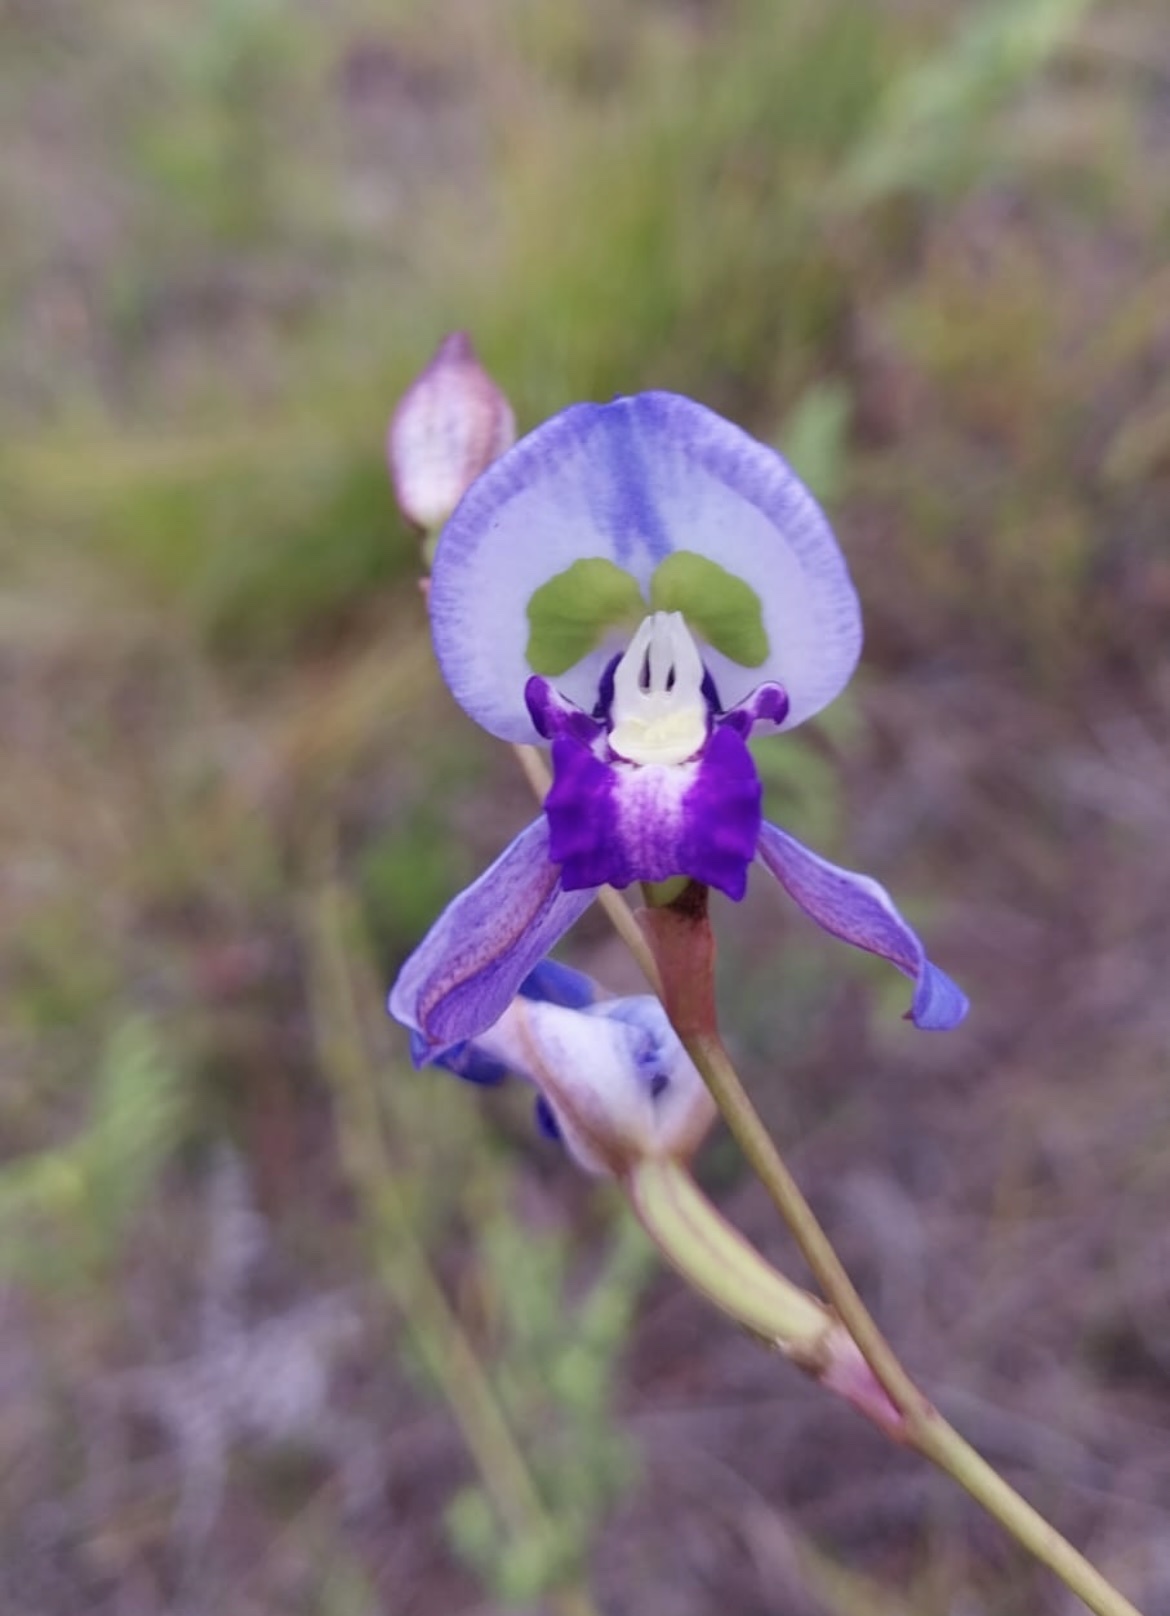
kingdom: Plantae
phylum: Tracheophyta
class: Liliopsida
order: Asparagales
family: Orchidaceae
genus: Disa
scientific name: Disa graminifolia
